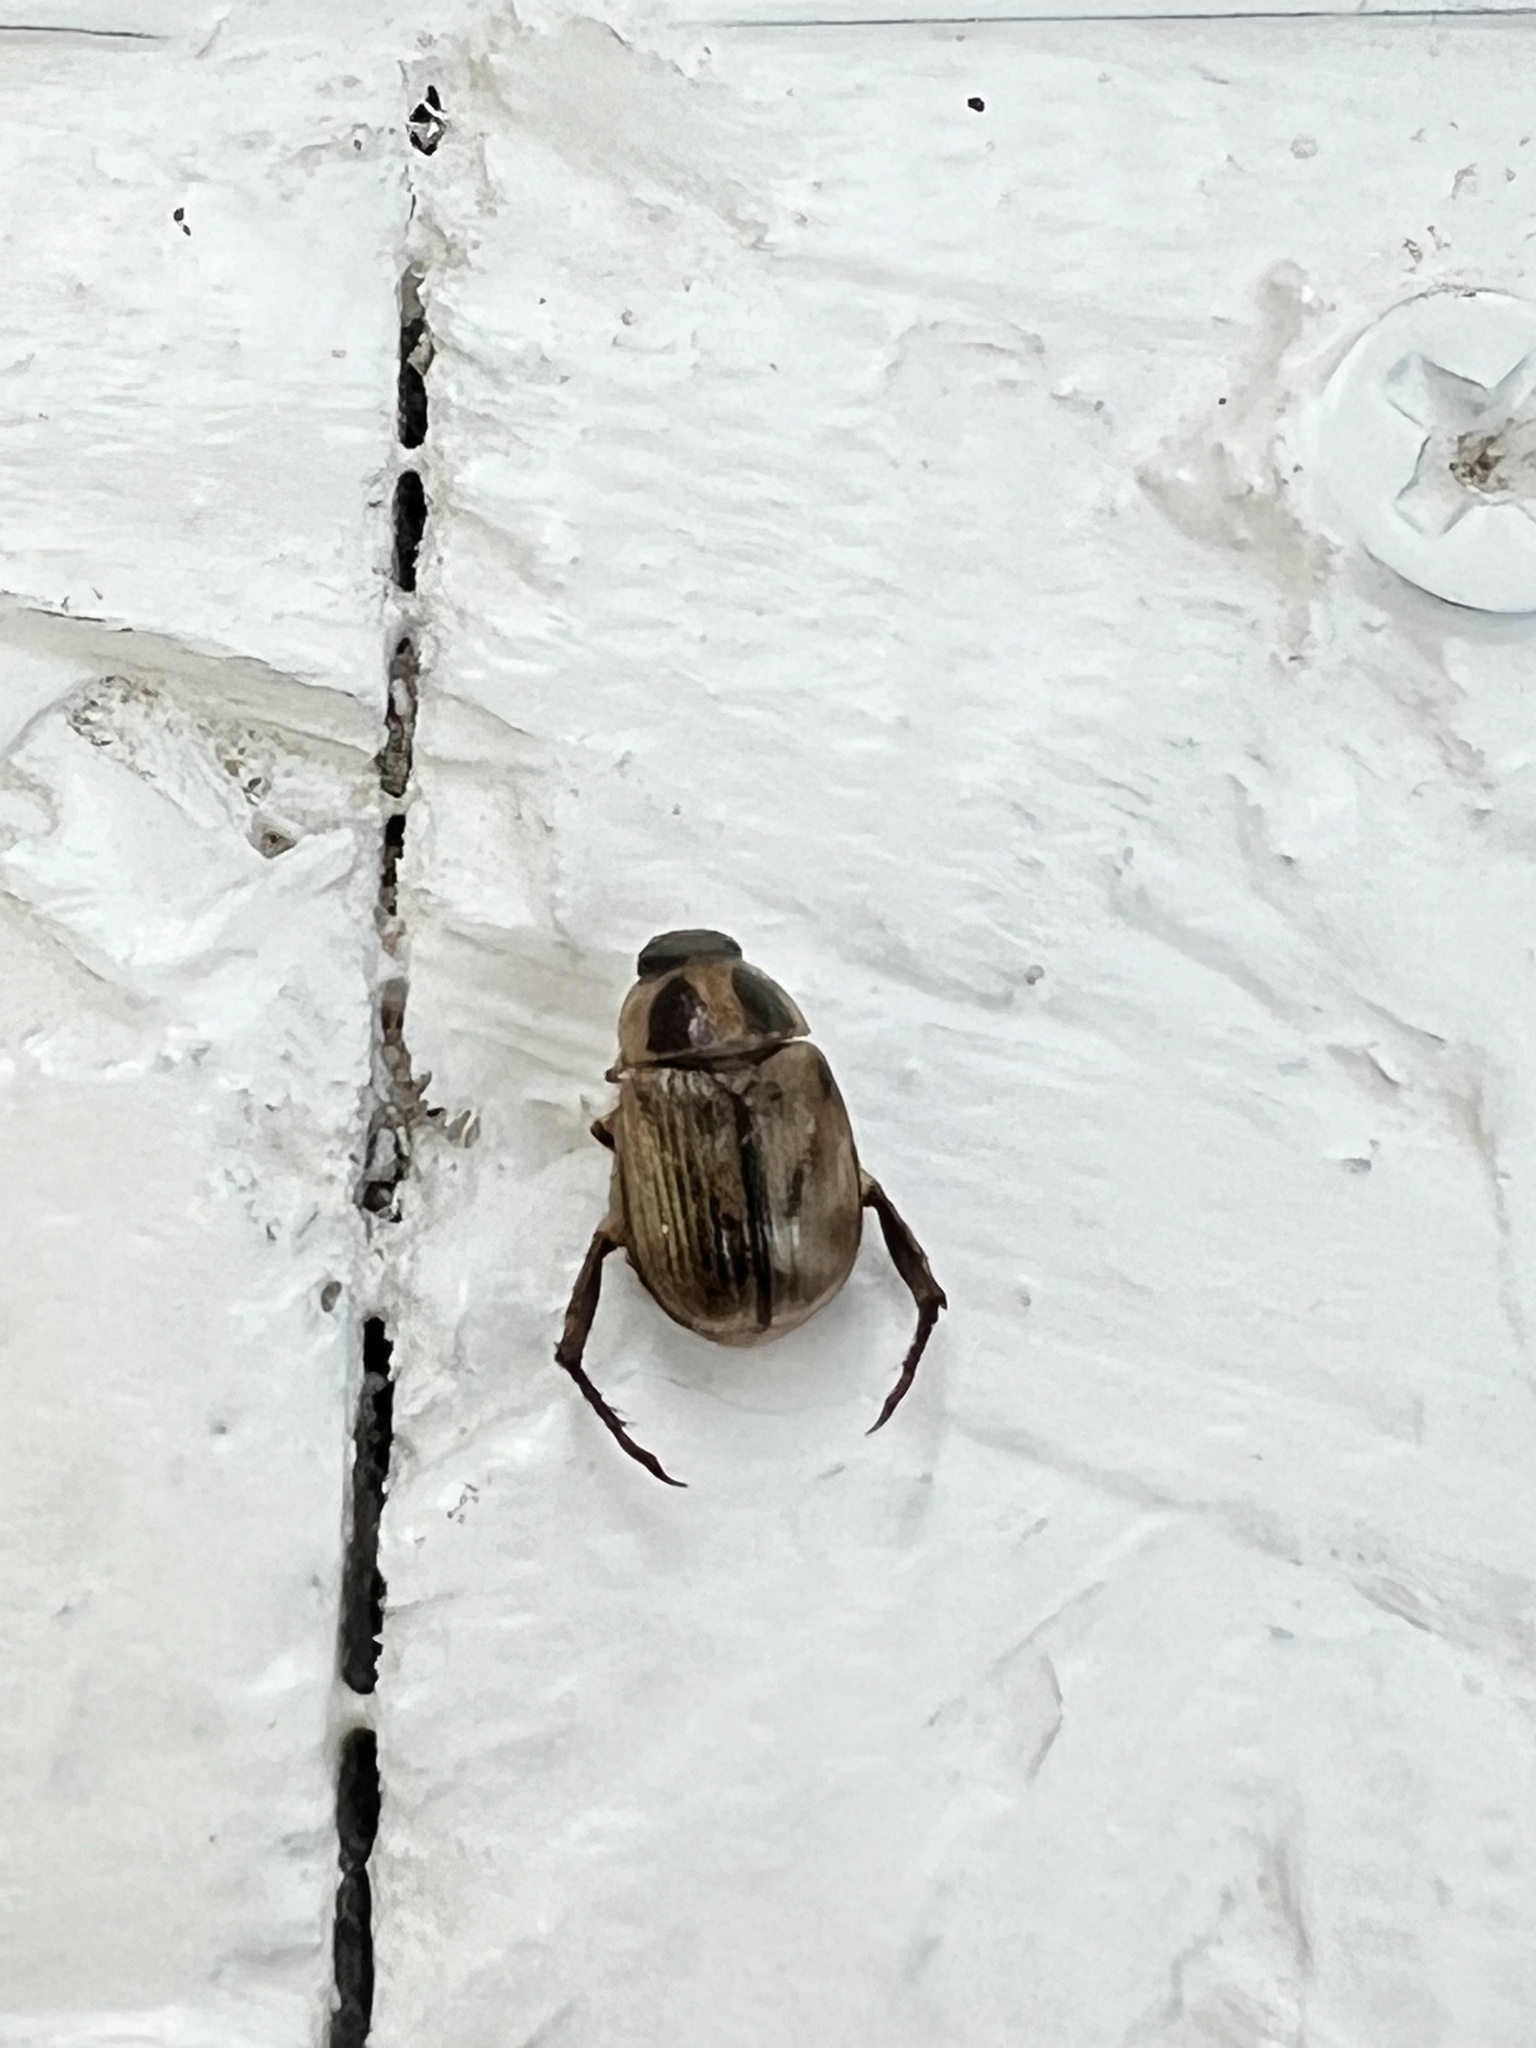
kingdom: Animalia
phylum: Arthropoda
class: Insecta
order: Coleoptera
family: Scarabaeidae
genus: Exomala
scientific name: Exomala orientalis
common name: Oriental beetle
